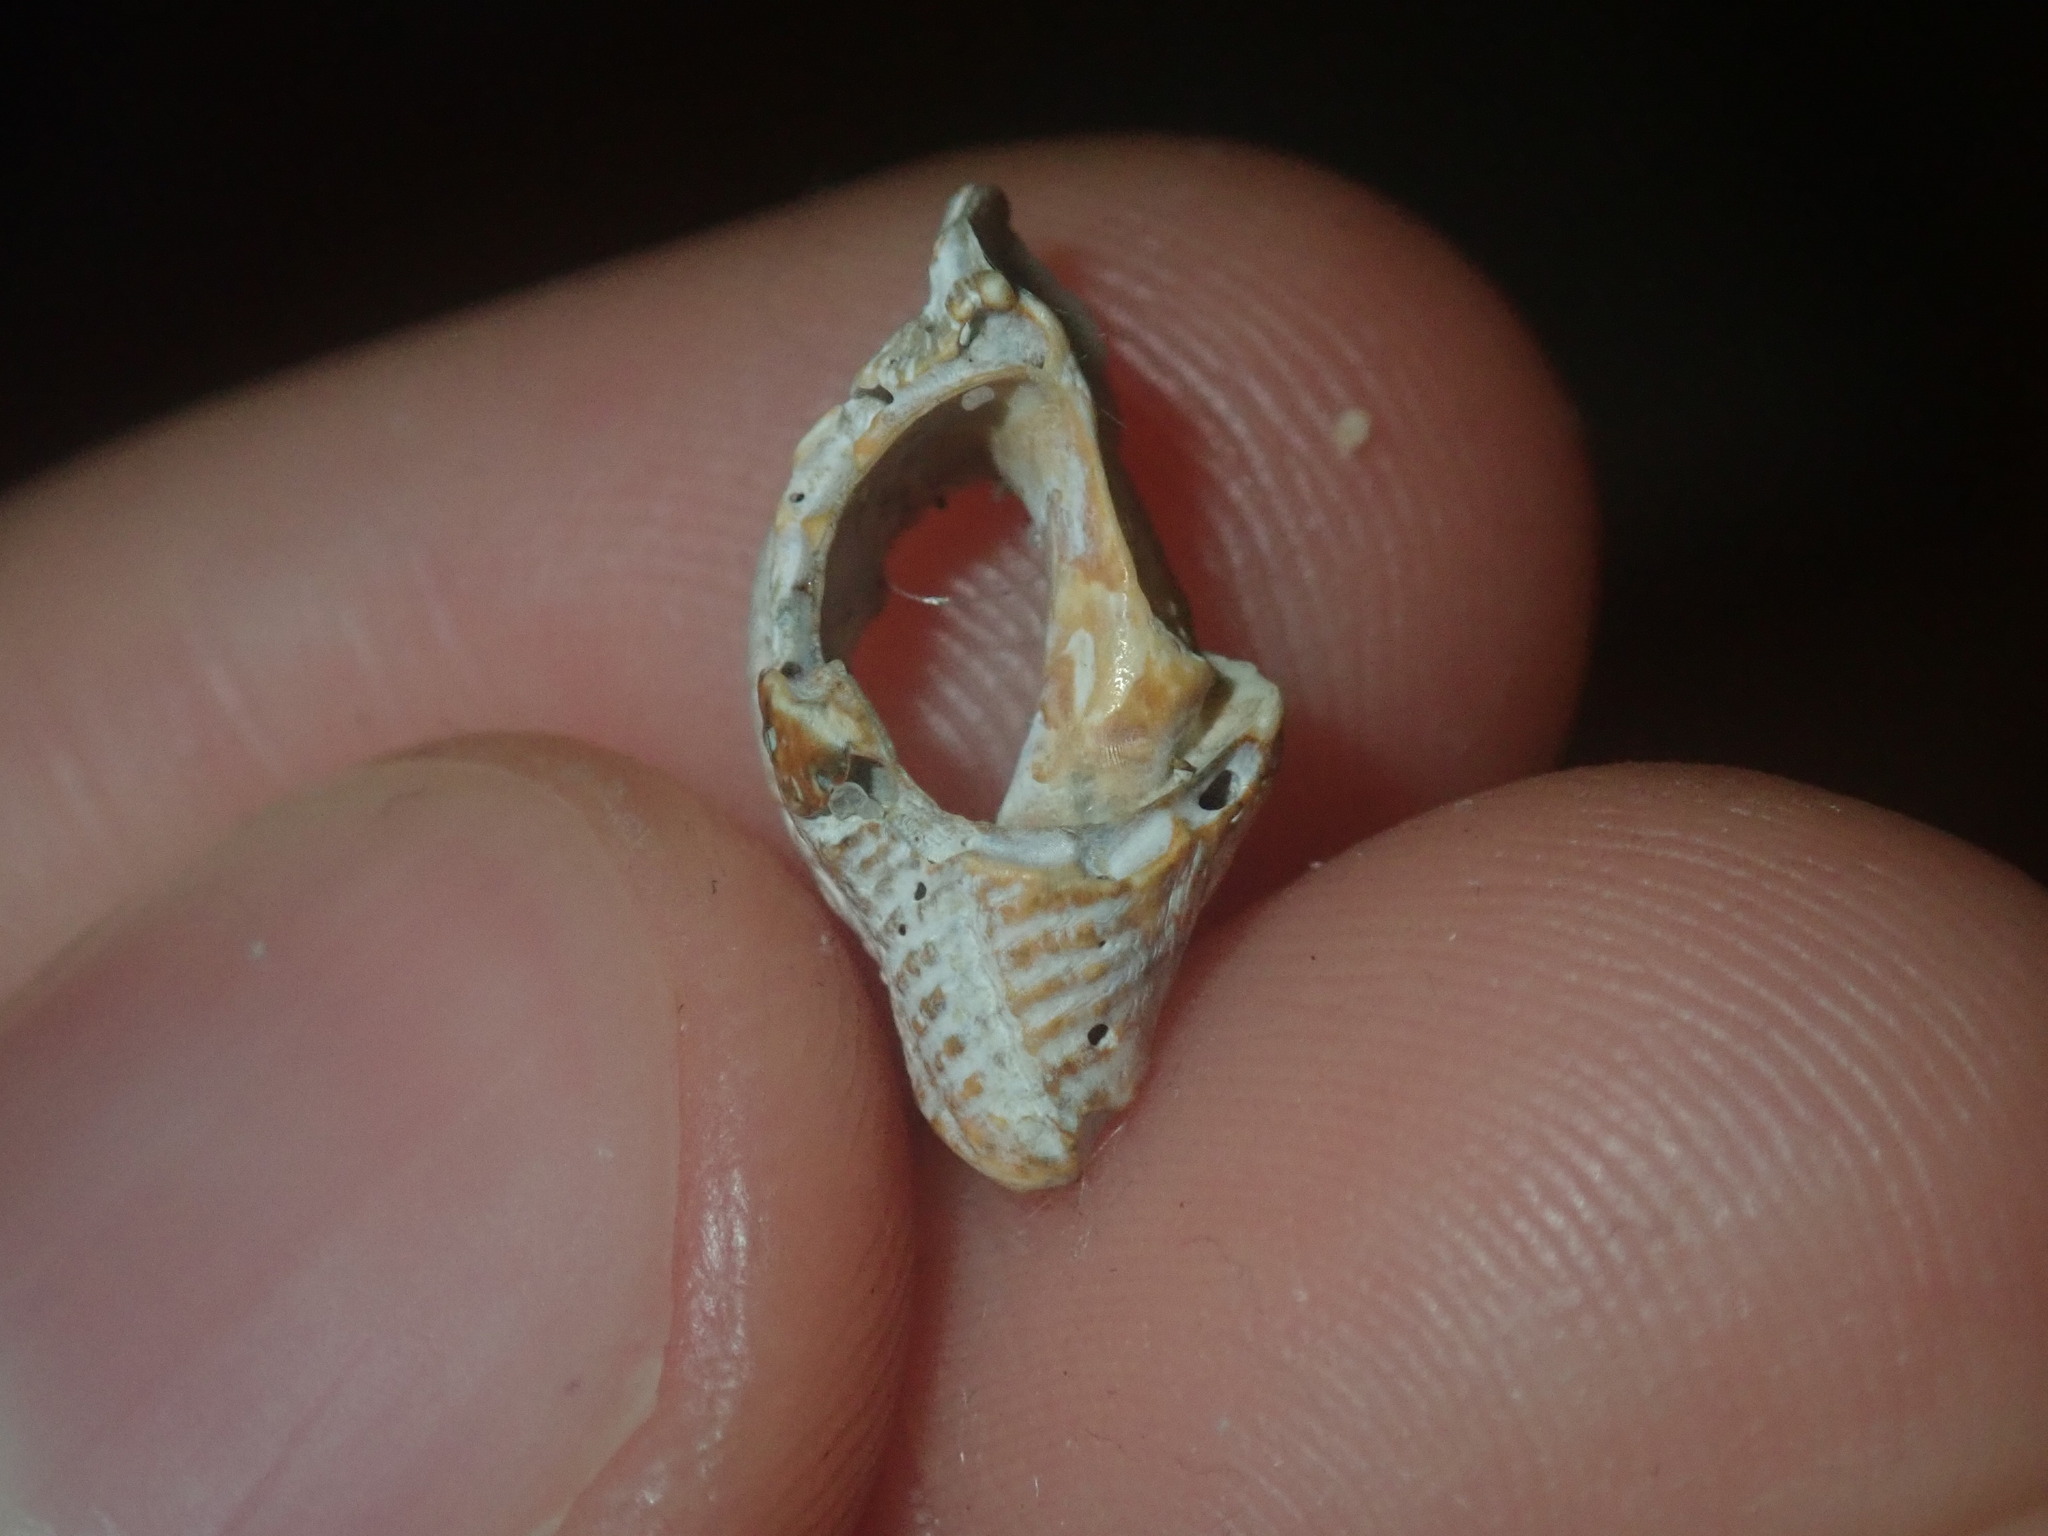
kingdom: Animalia
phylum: Mollusca
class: Gastropoda
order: Neogastropoda
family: Muricidae
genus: Bedeva
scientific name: Bedeva paivae
